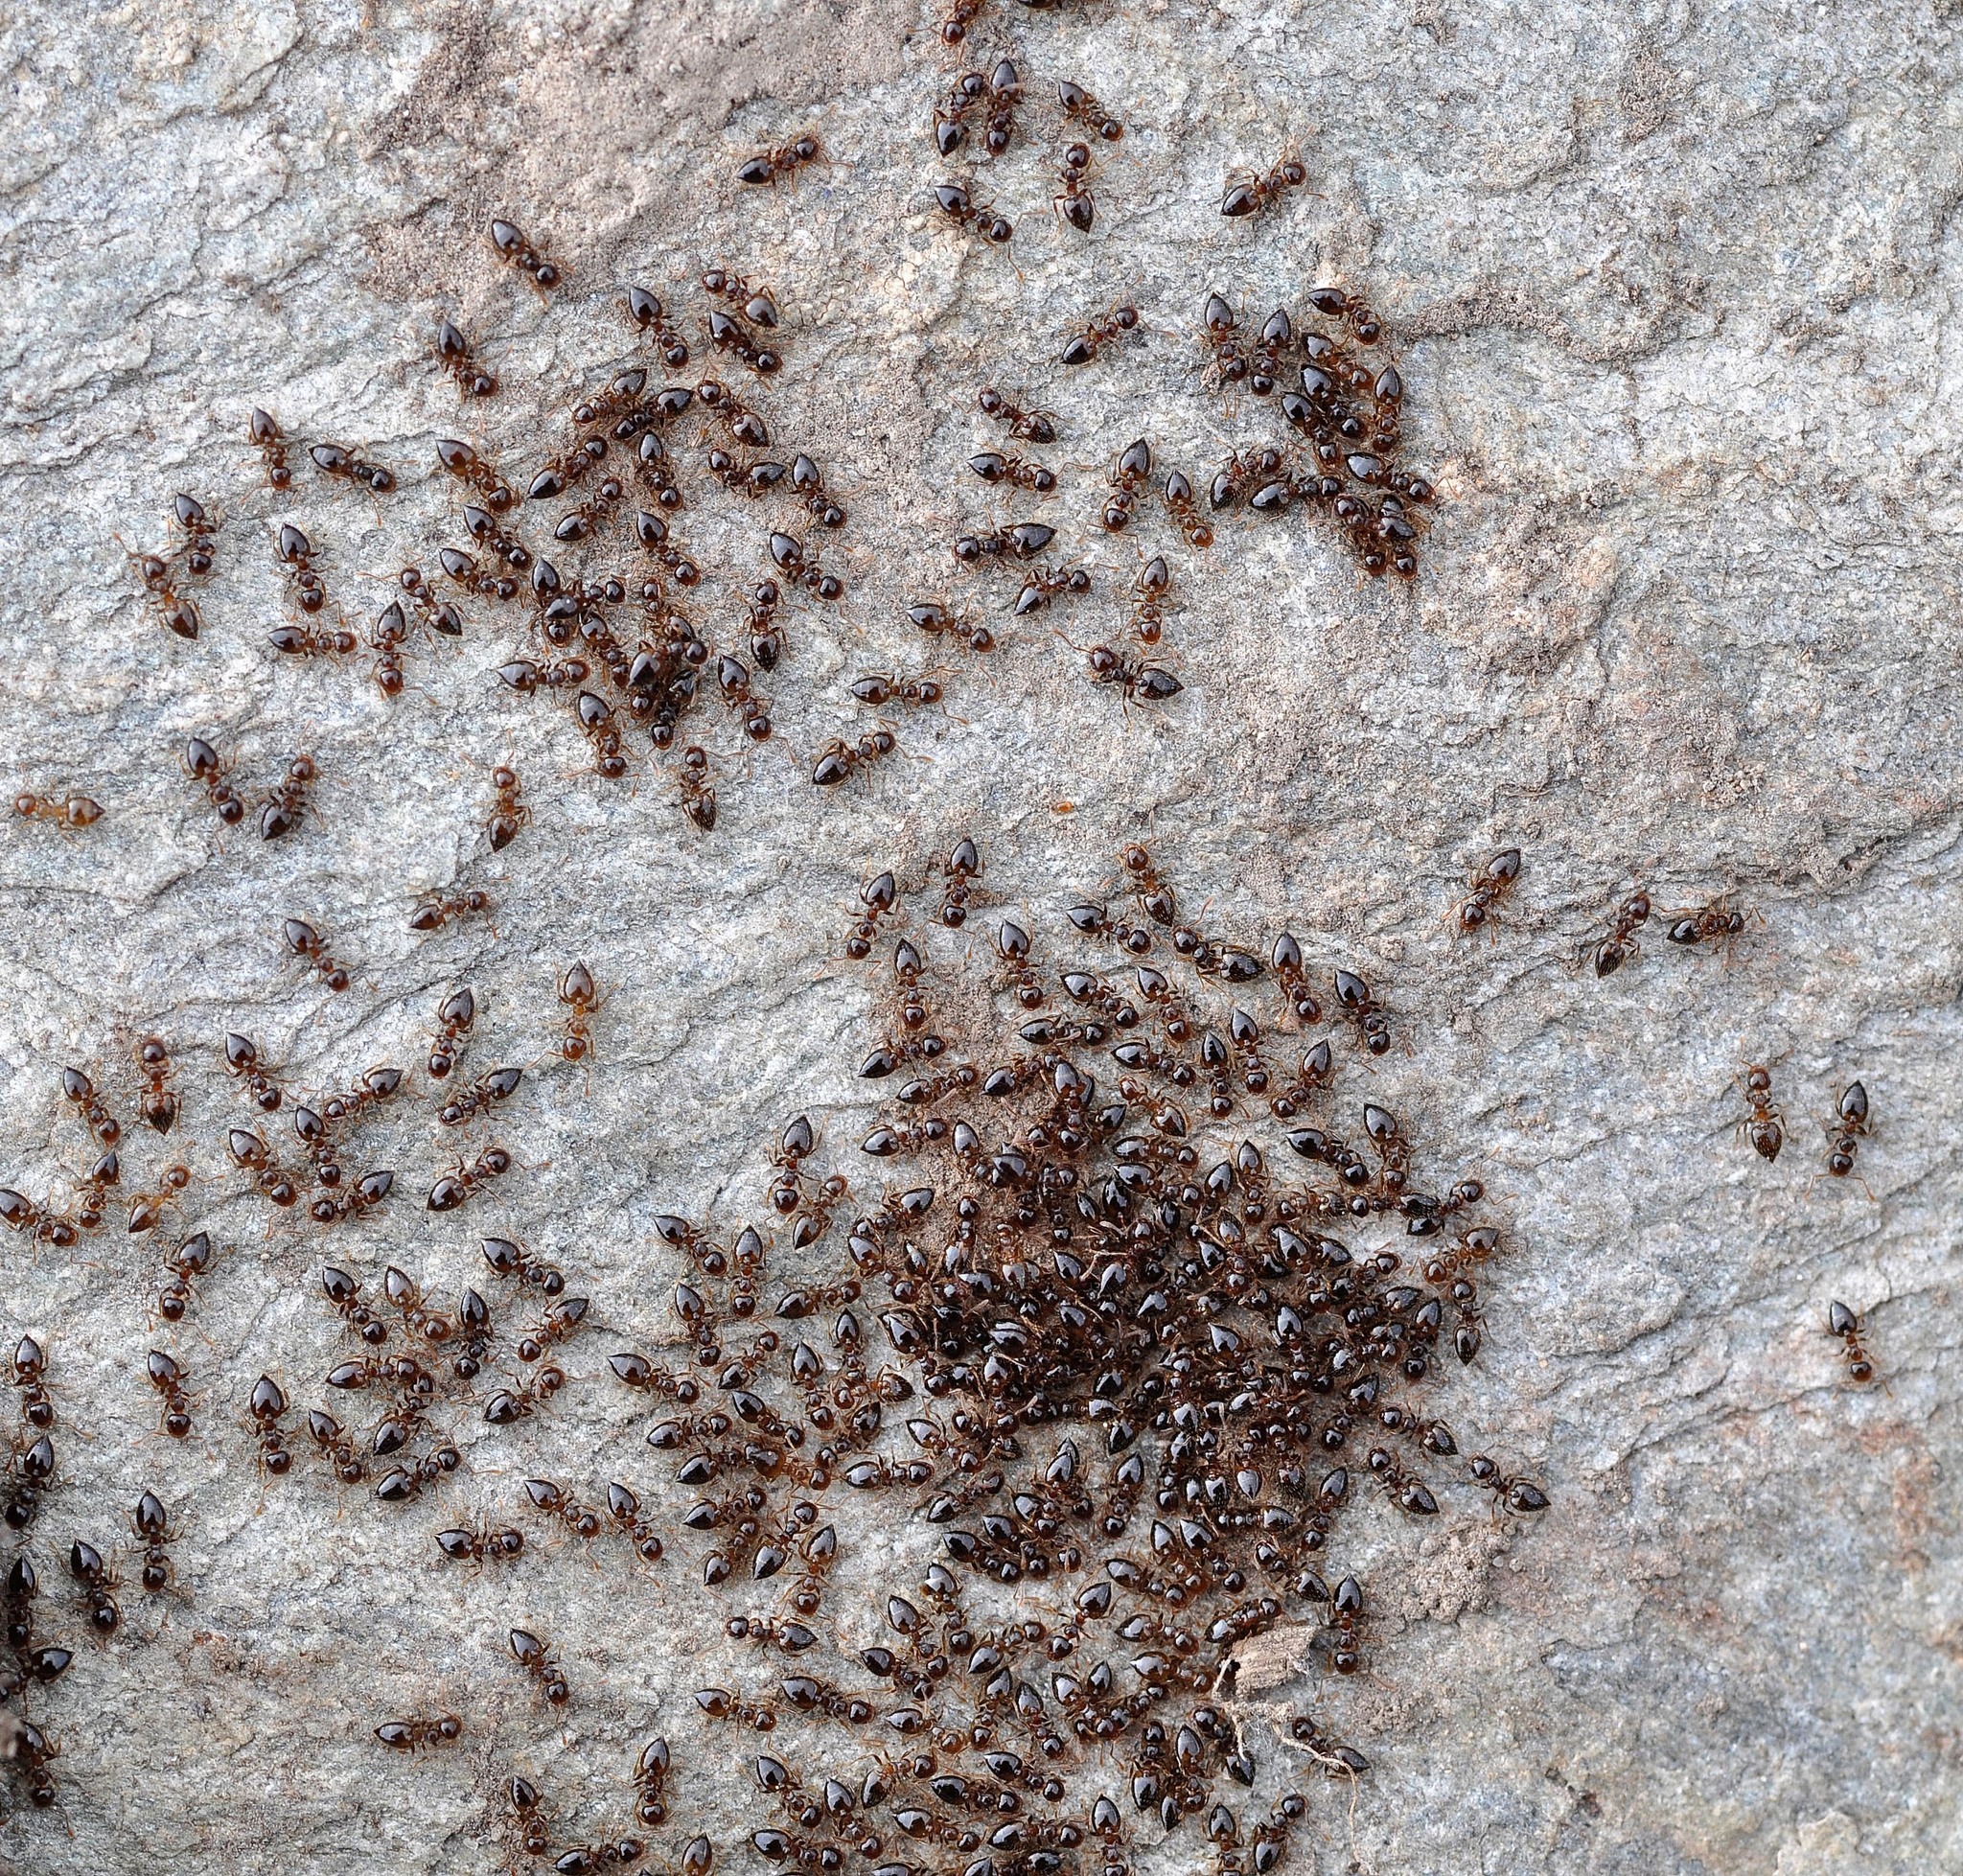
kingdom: Animalia
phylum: Arthropoda
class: Insecta
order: Hymenoptera
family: Formicidae
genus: Crematogaster
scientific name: Crematogaster sordidula
